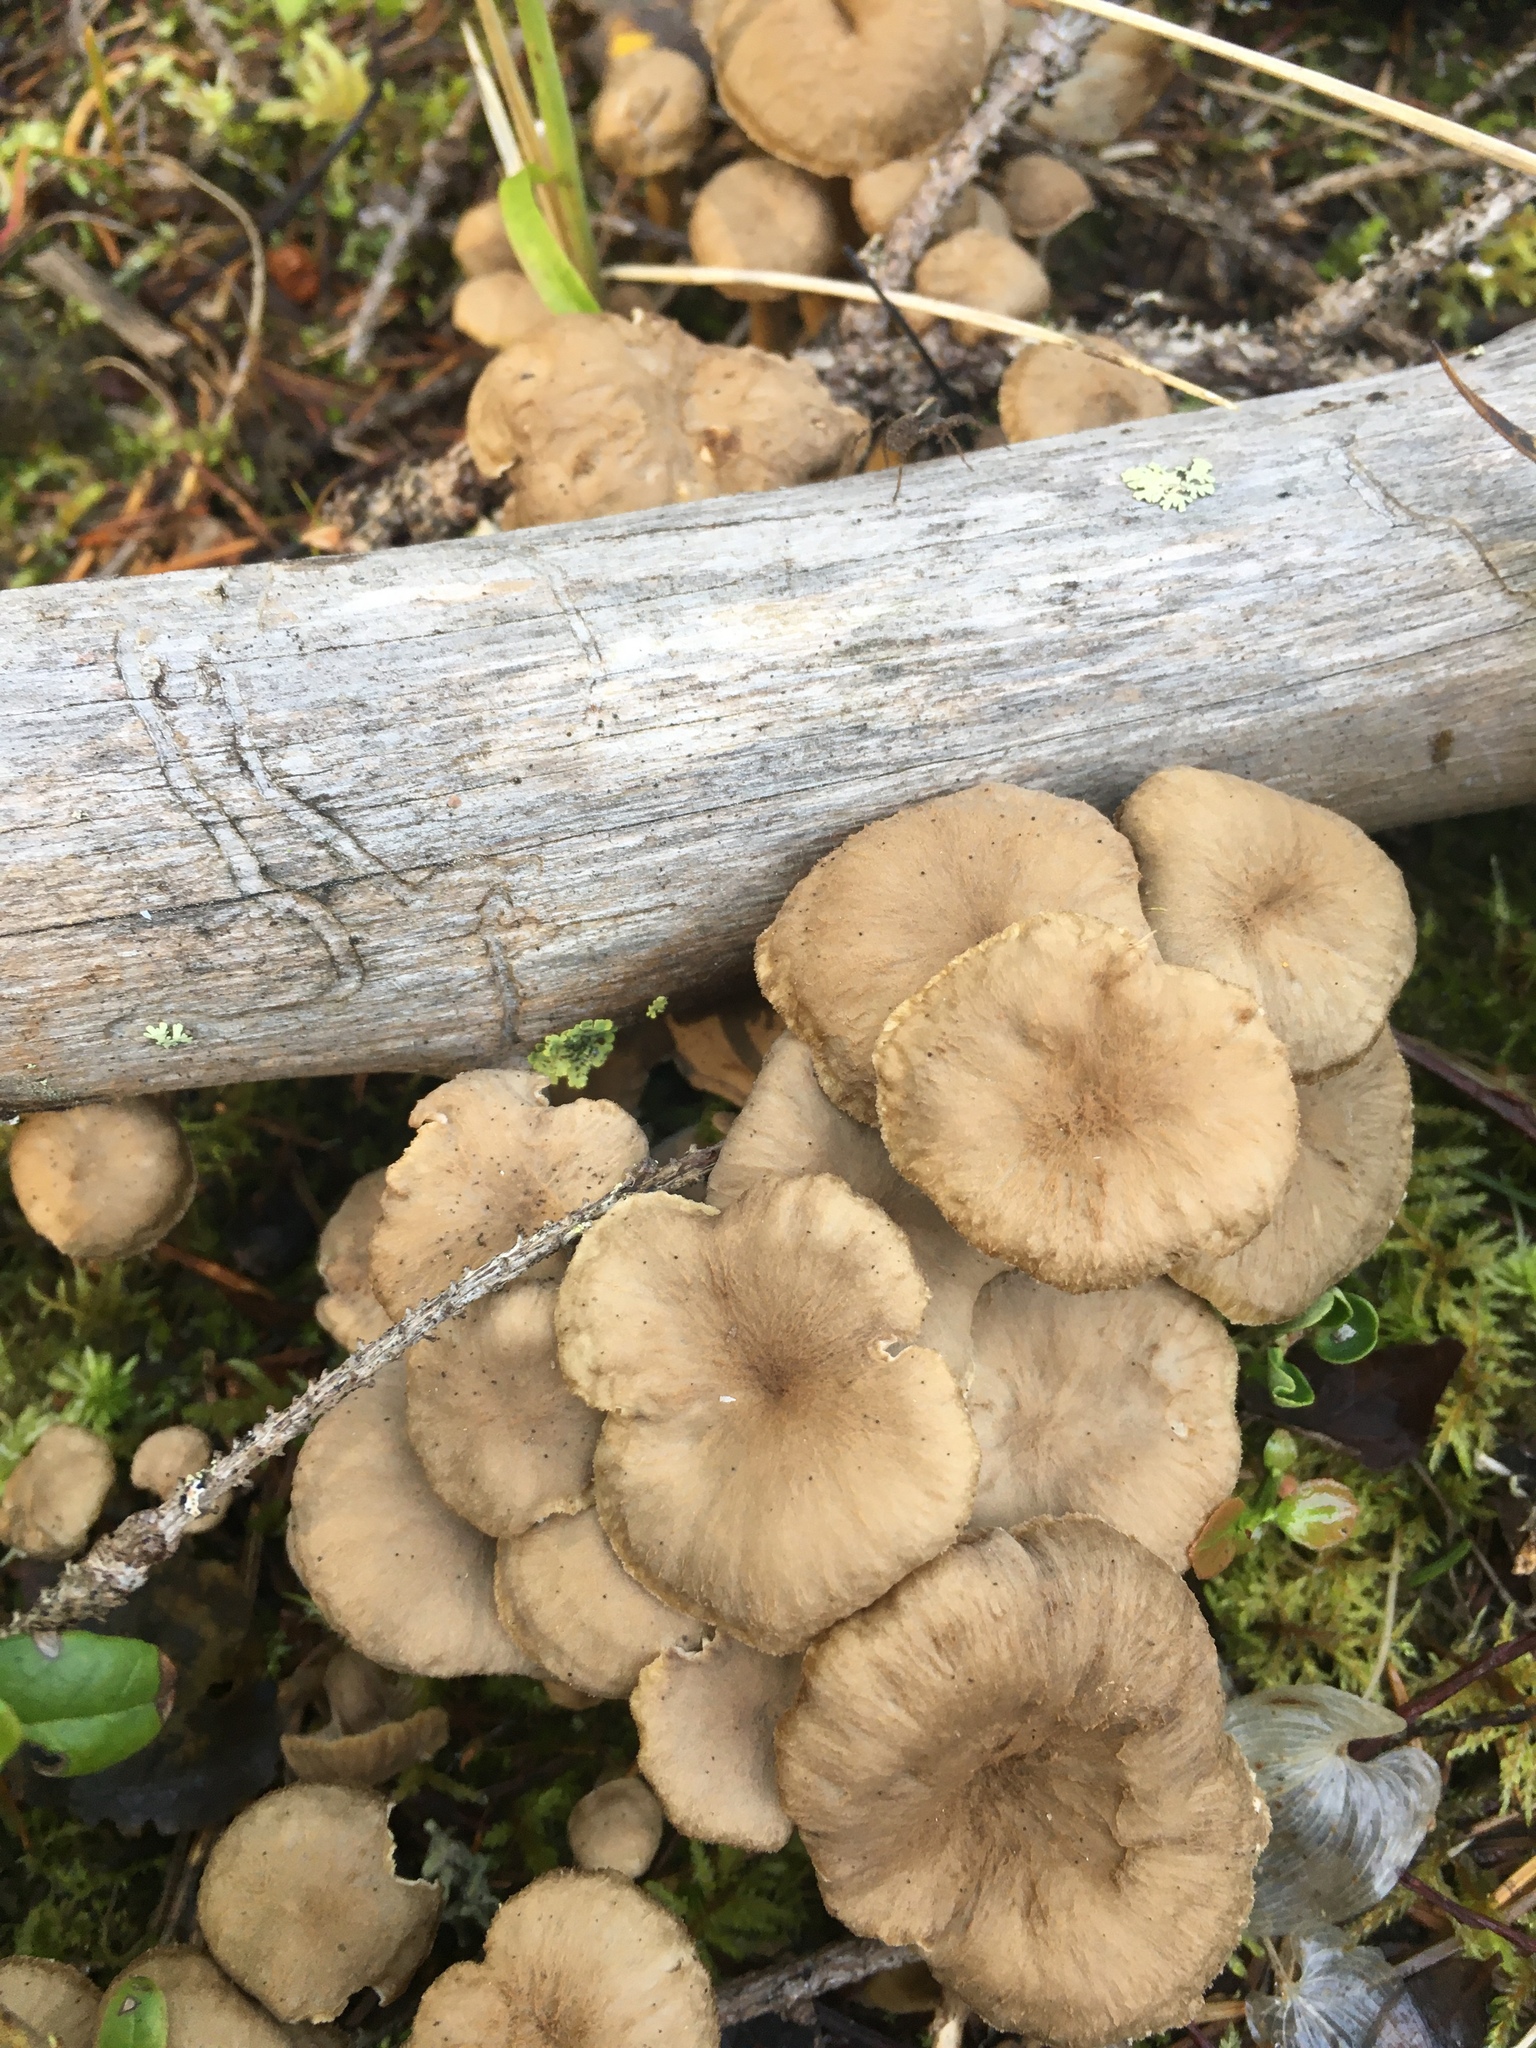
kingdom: Fungi
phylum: Basidiomycota
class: Agaricomycetes
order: Cantharellales
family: Hydnaceae
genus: Craterellus
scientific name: Craterellus tubaeformis
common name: Yellowfoot
